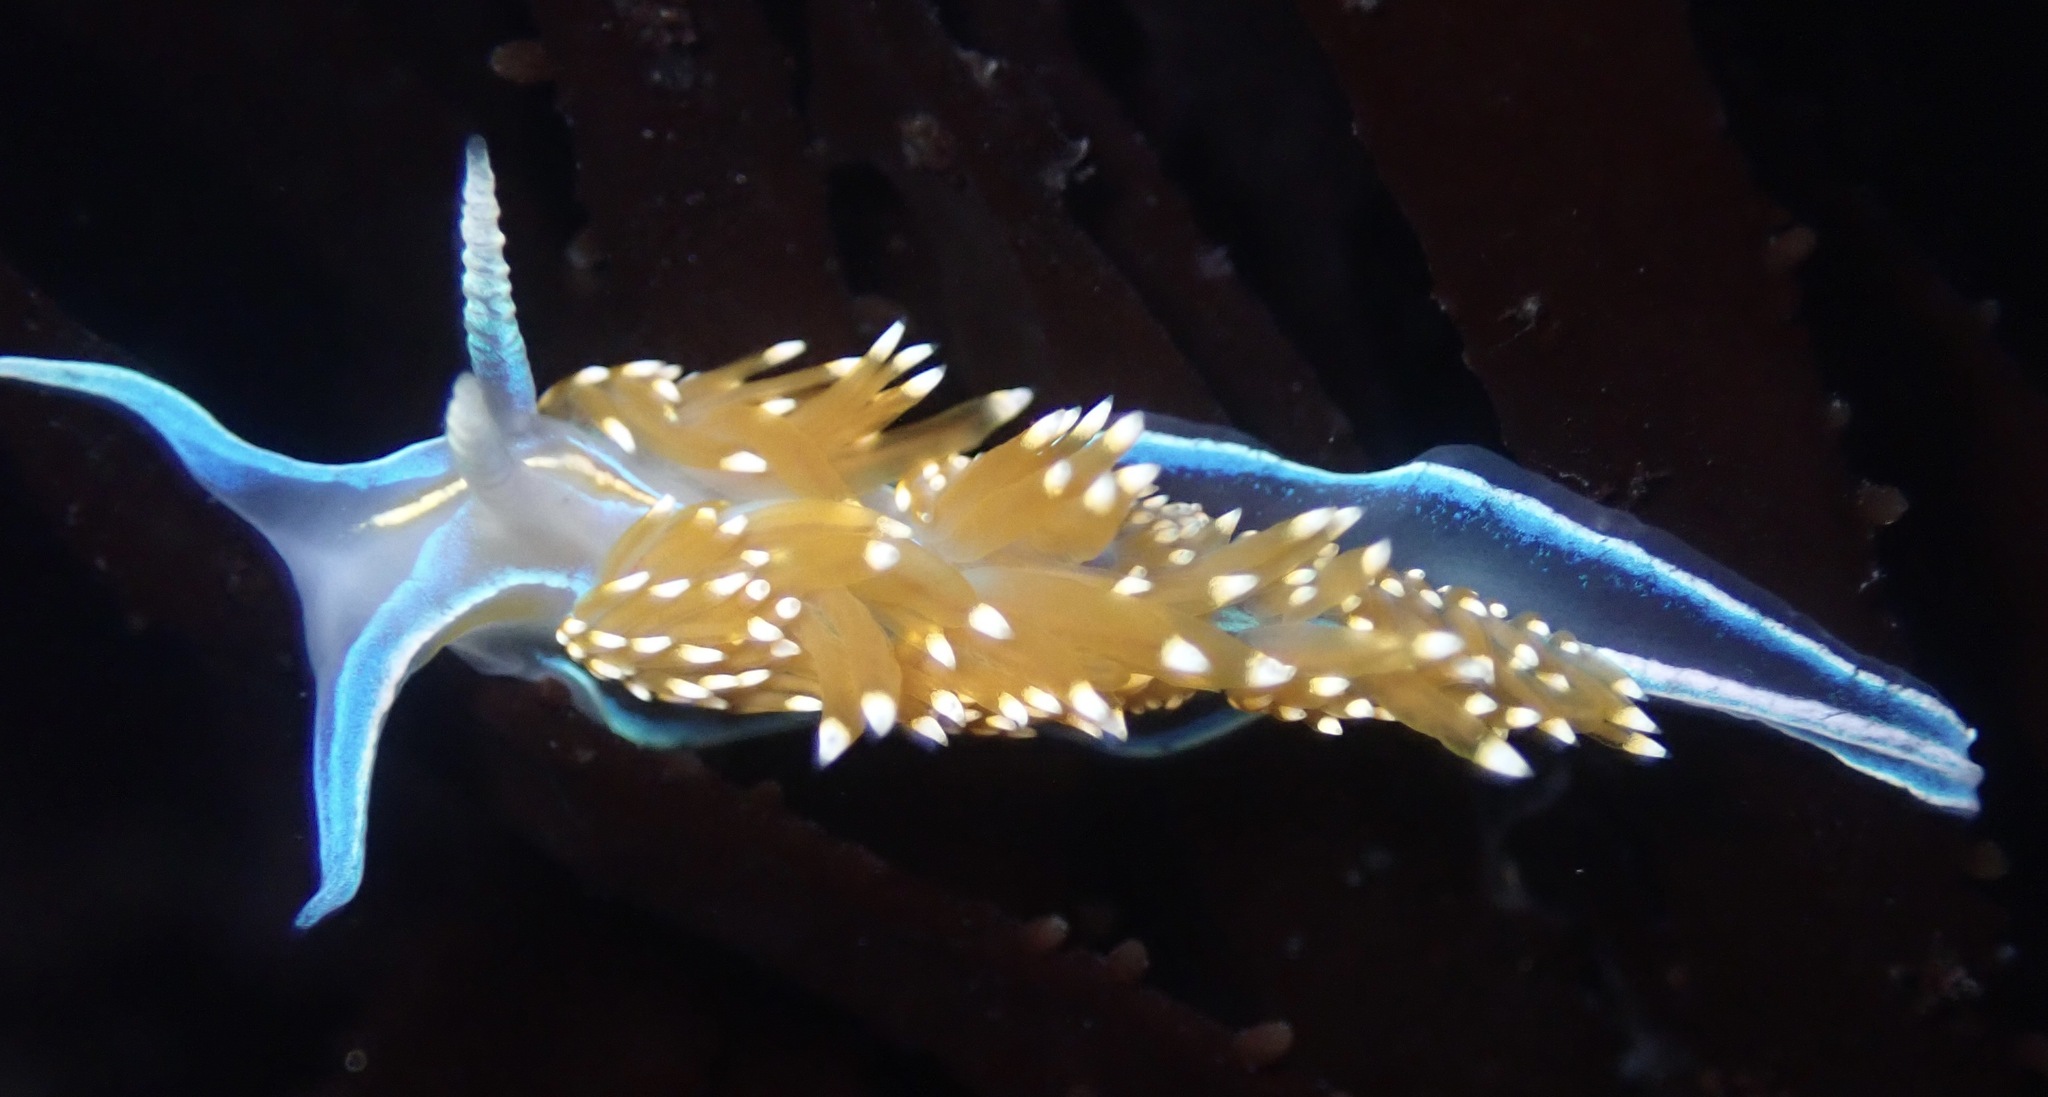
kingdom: Animalia
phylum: Mollusca
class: Gastropoda
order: Nudibranchia
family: Myrrhinidae
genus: Hermissenda
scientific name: Hermissenda opalescens
